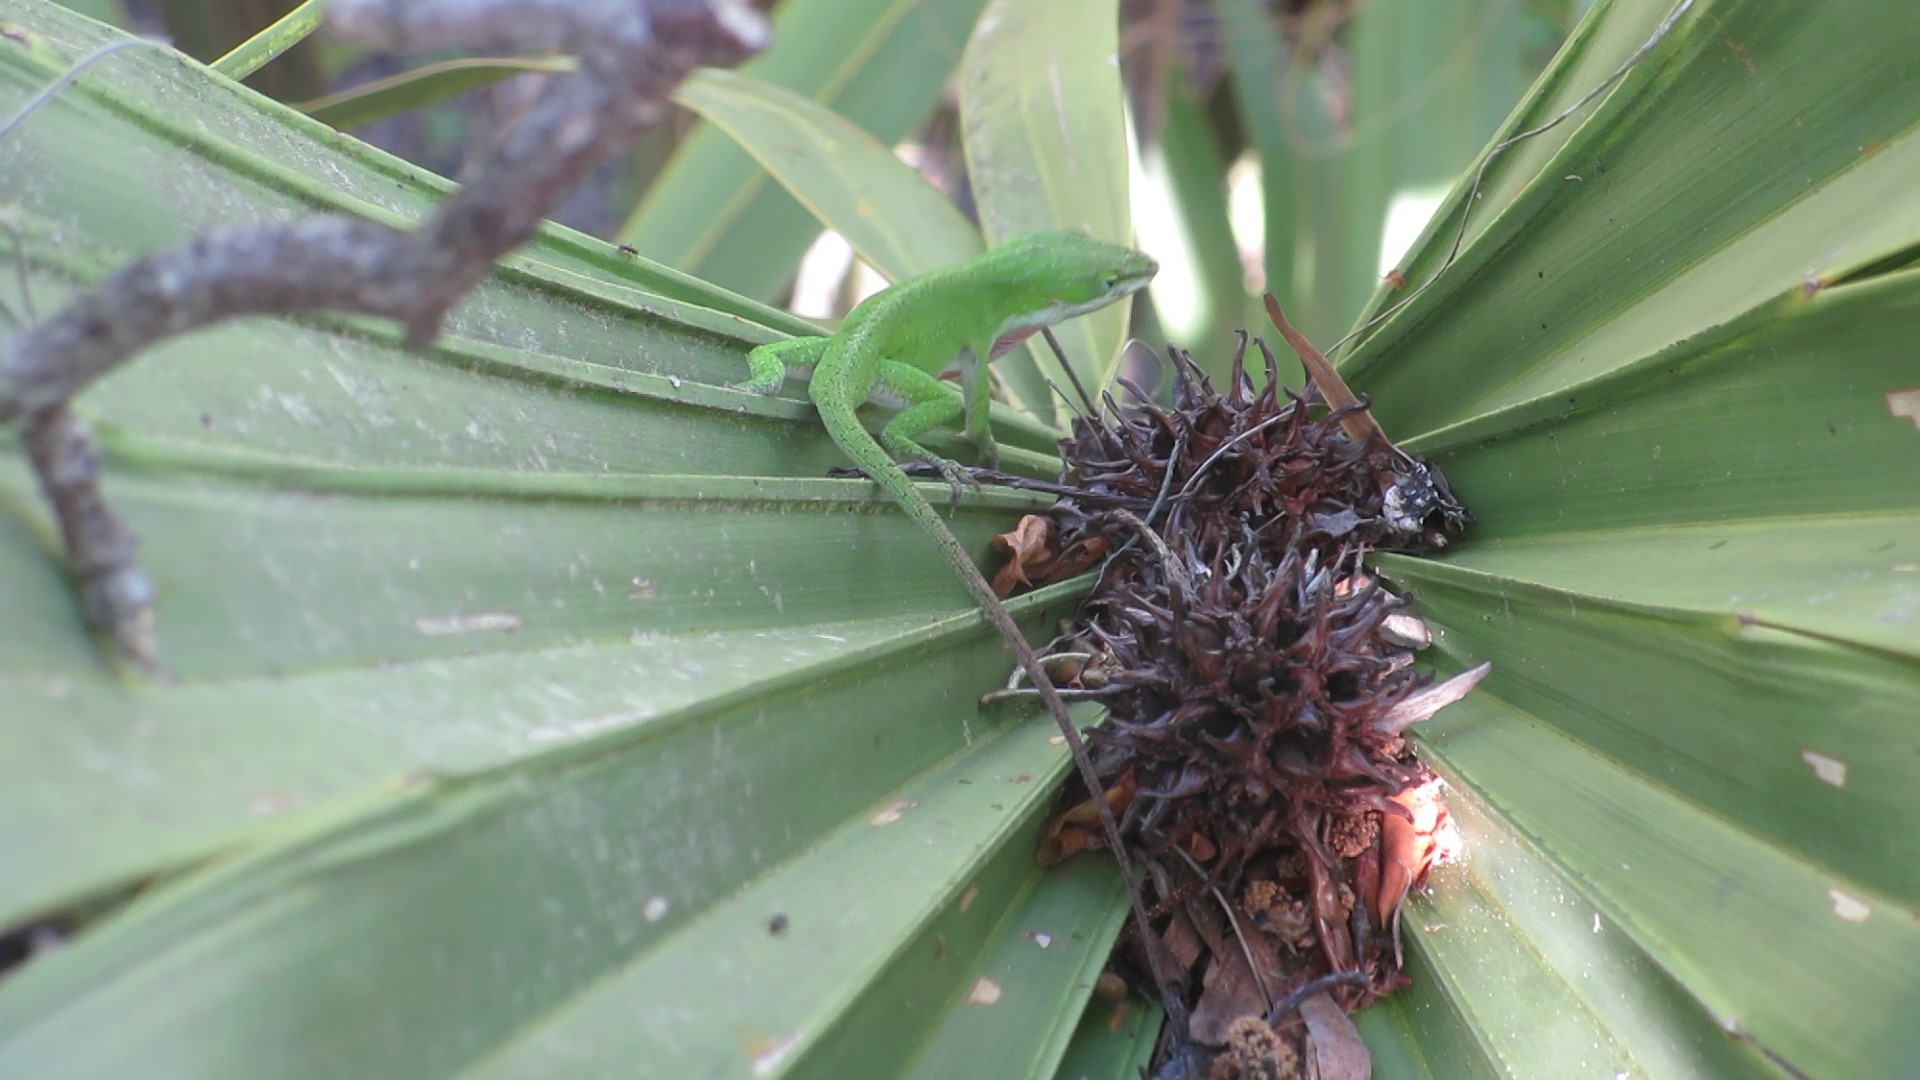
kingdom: Animalia
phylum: Chordata
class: Squamata
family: Dactyloidae
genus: Anolis
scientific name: Anolis carolinensis
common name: Green anole
